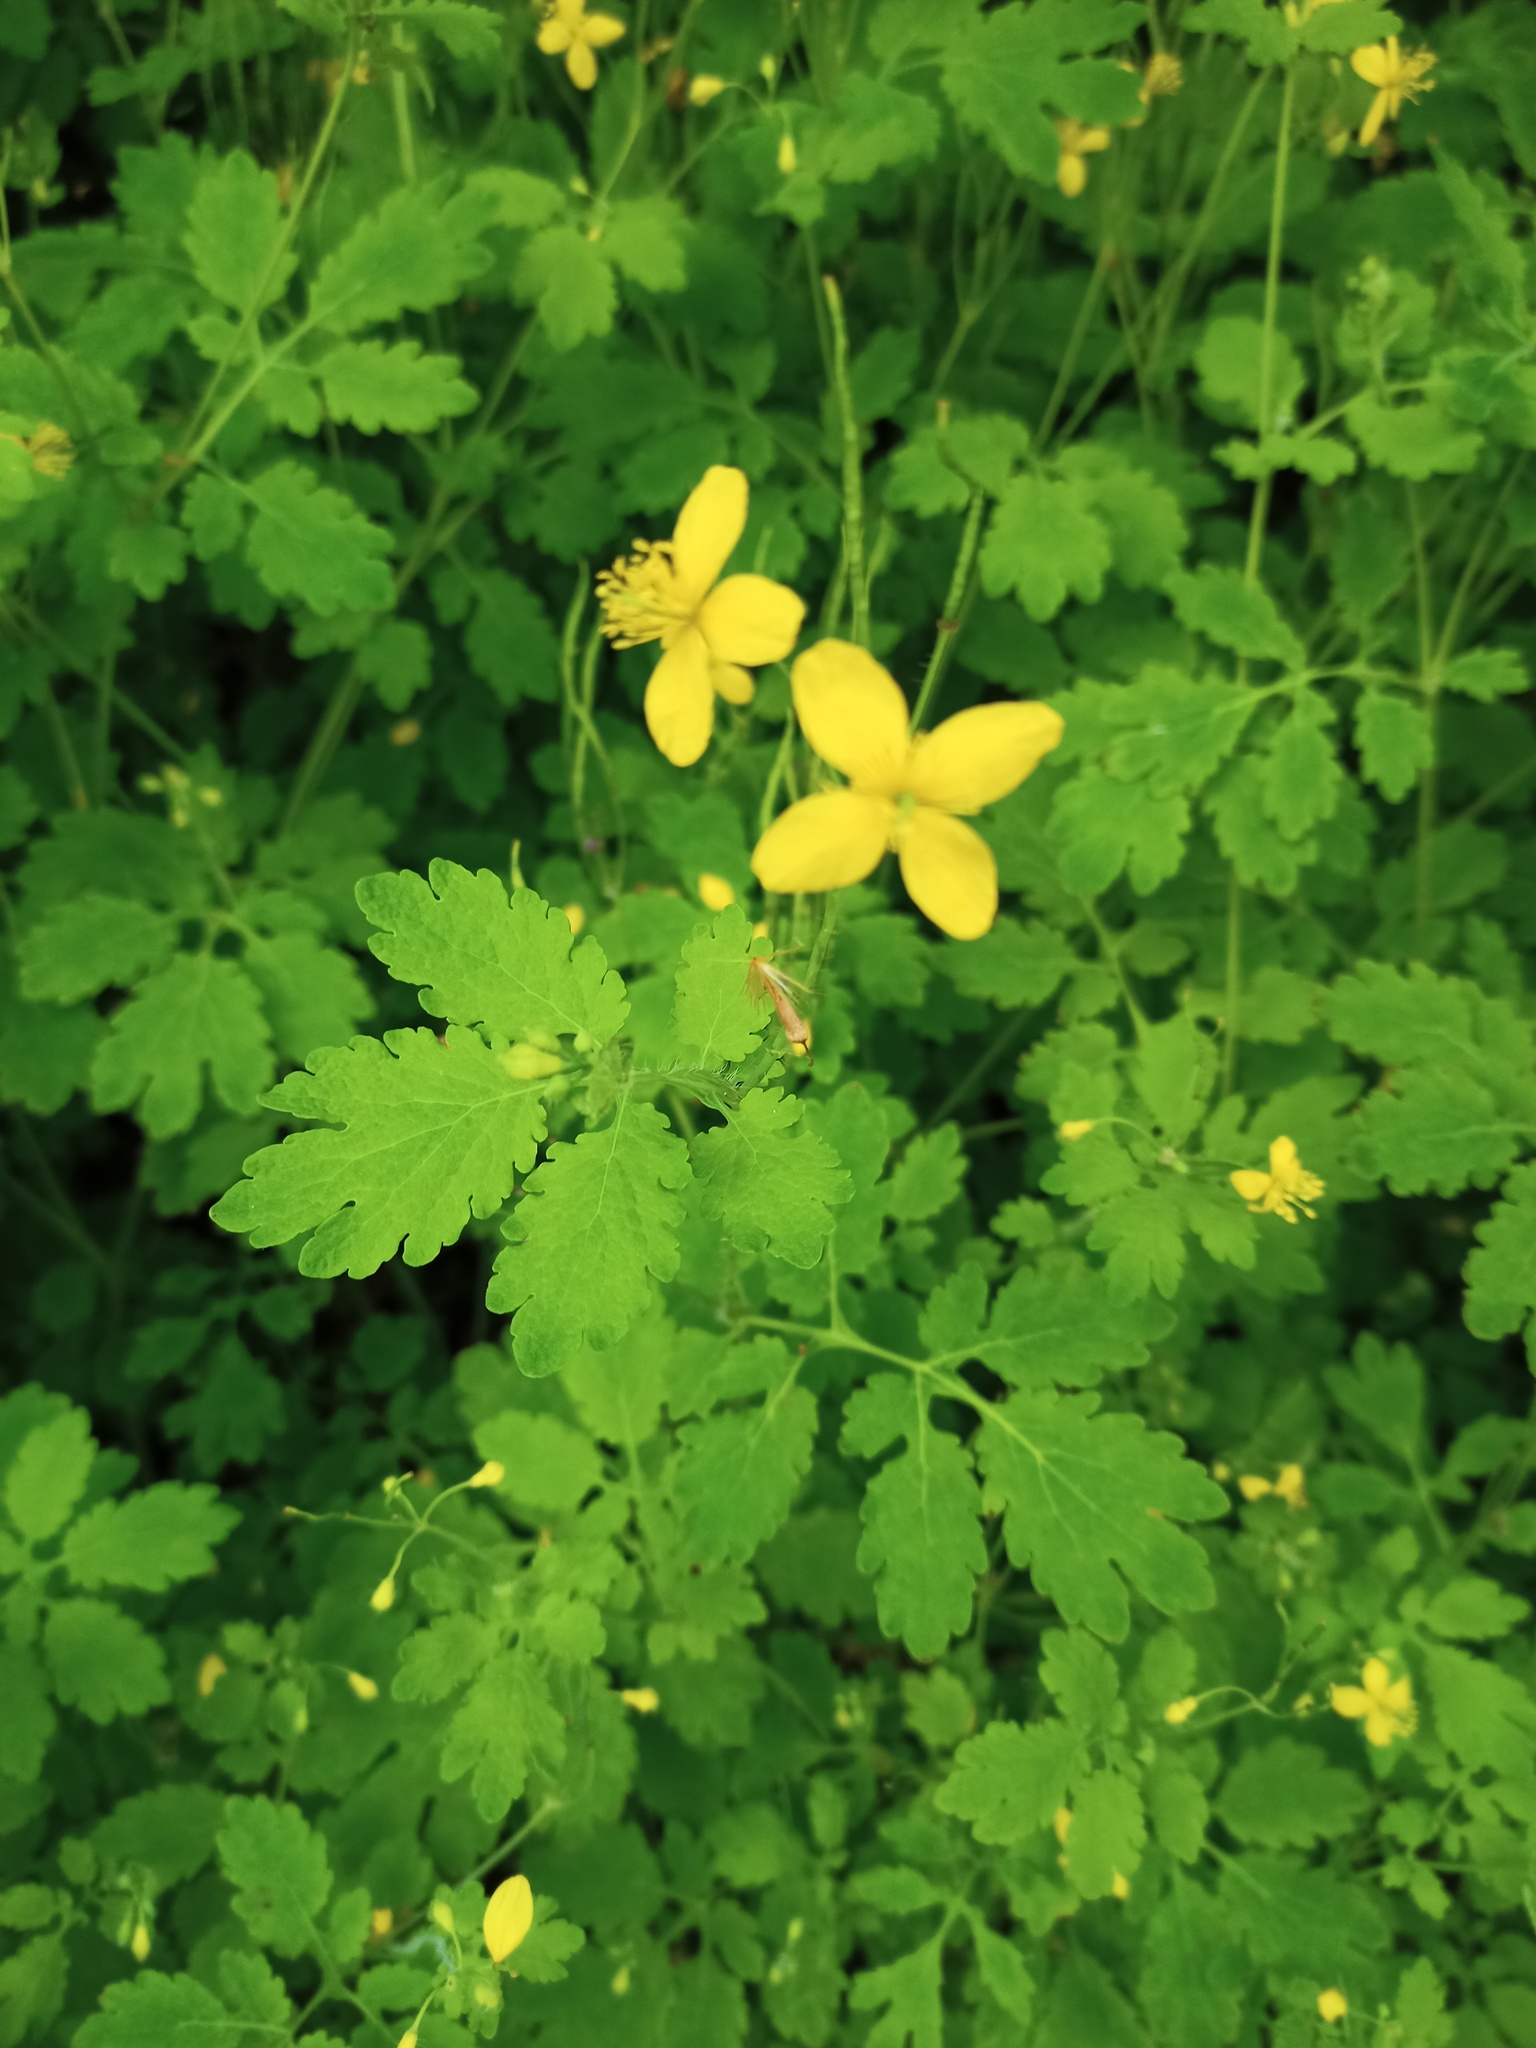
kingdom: Plantae
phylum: Tracheophyta
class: Magnoliopsida
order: Ranunculales
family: Papaveraceae
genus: Chelidonium
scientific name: Chelidonium majus
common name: Greater celandine
